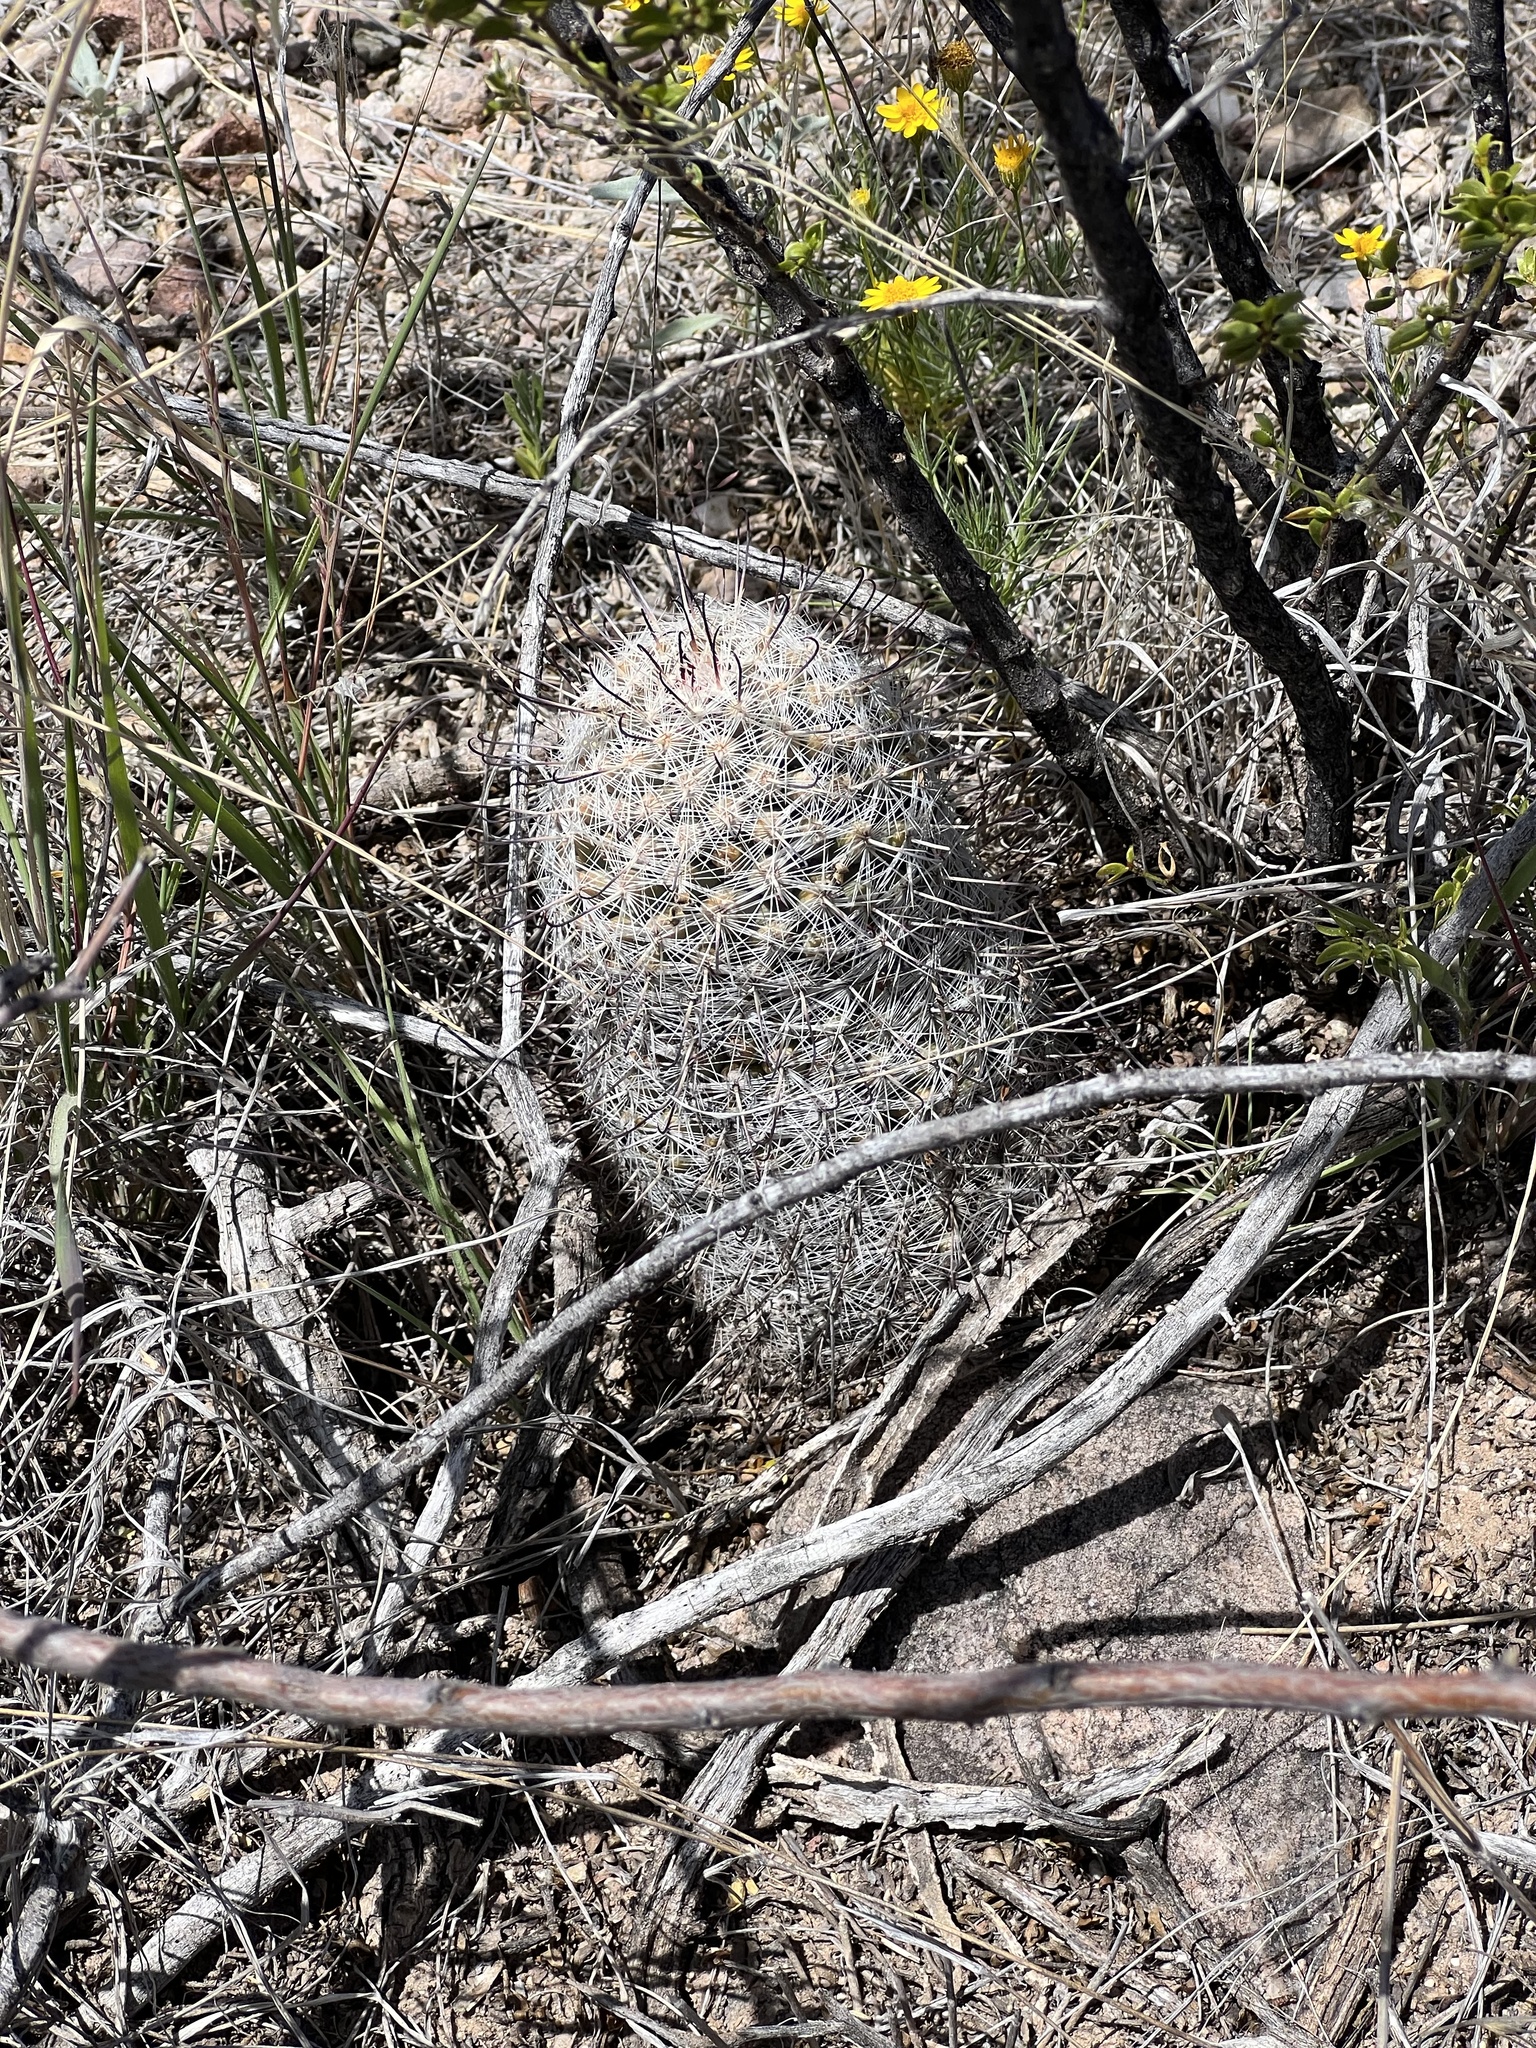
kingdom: Plantae
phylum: Tracheophyta
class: Magnoliopsida
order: Caryophyllales
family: Cactaceae
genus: Cochemiea
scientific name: Cochemiea grahamii
